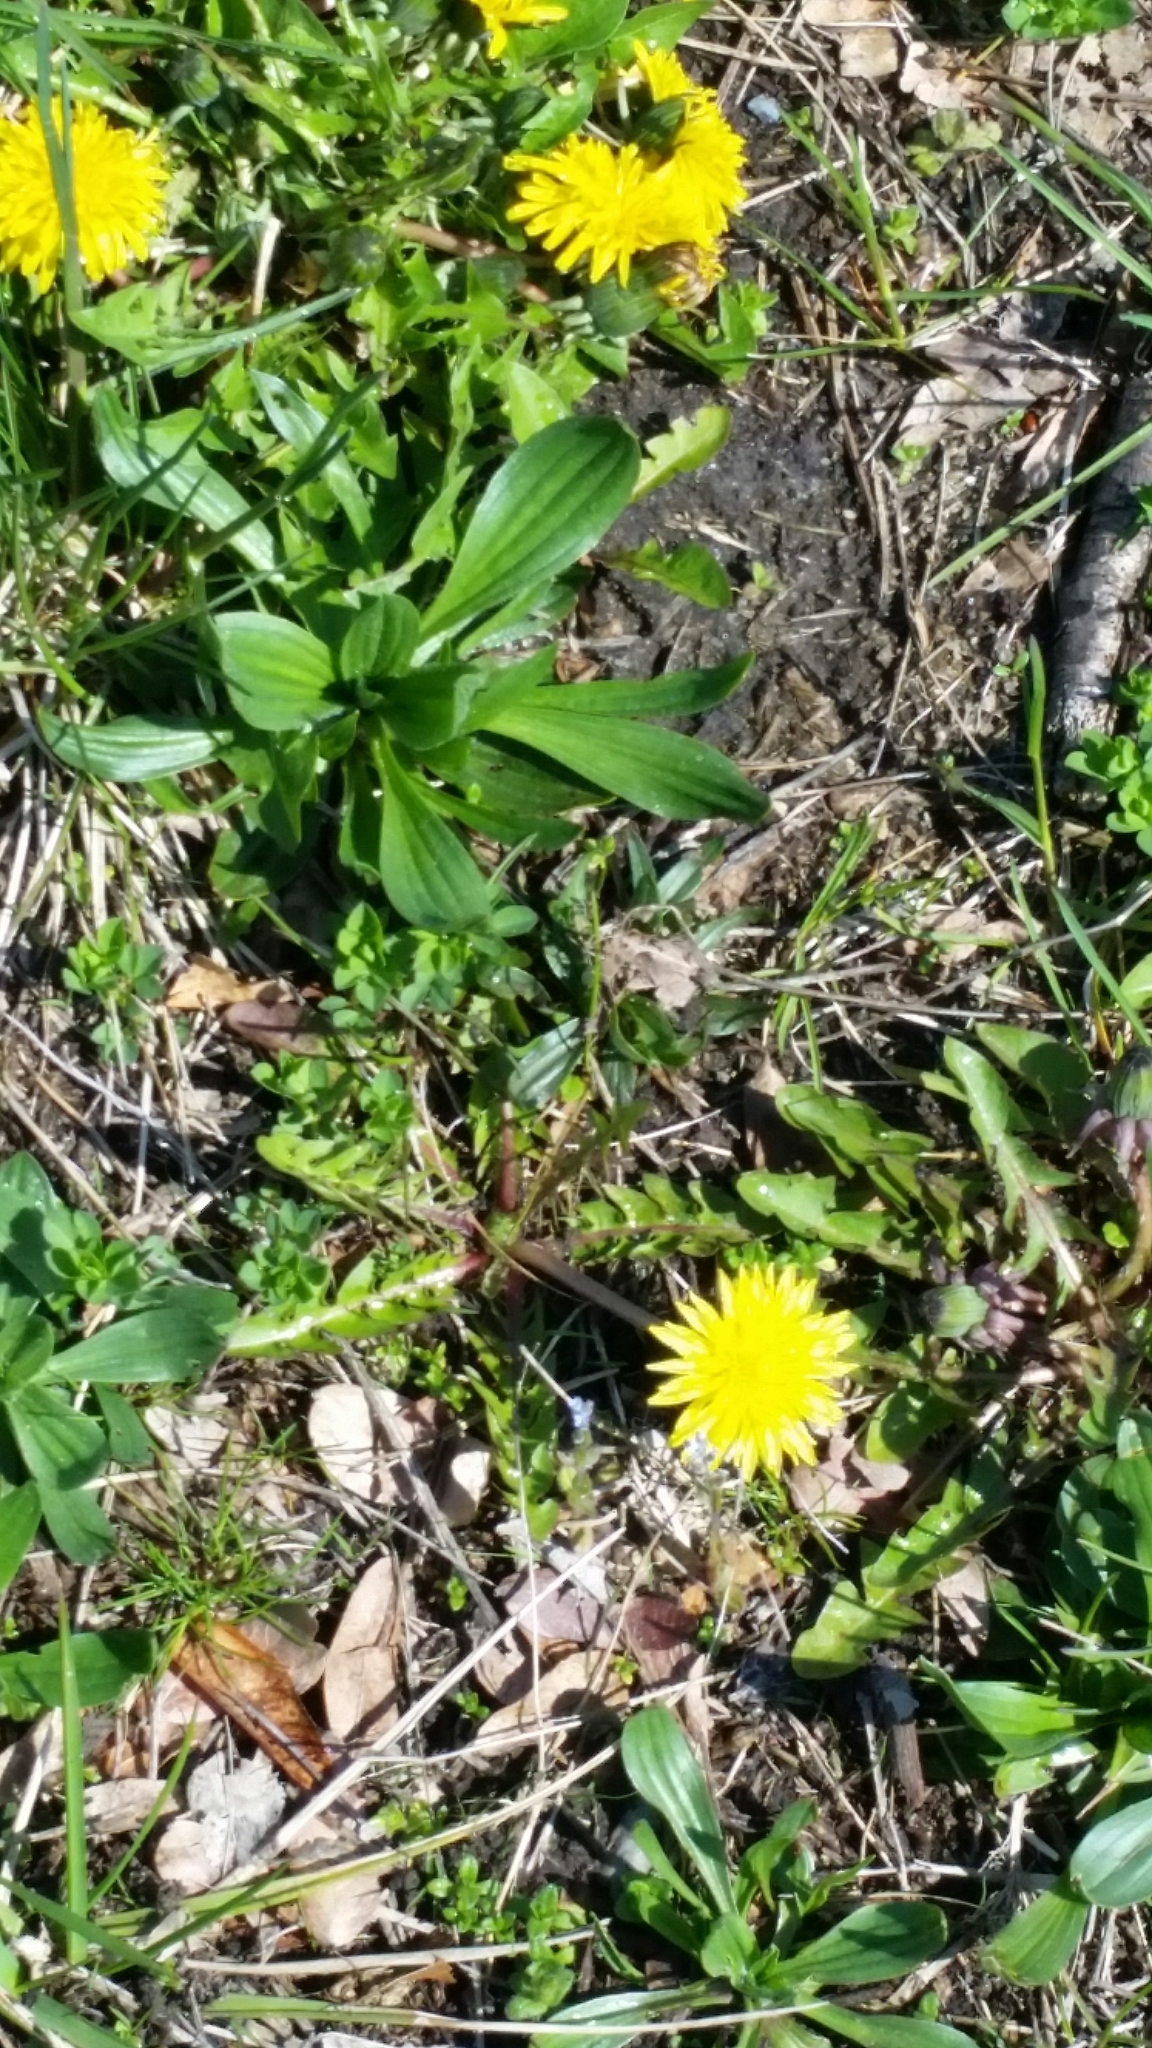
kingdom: Plantae
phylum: Tracheophyta
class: Magnoliopsida
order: Asterales
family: Asteraceae
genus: Taraxacum
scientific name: Taraxacum officinale
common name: Common dandelion
